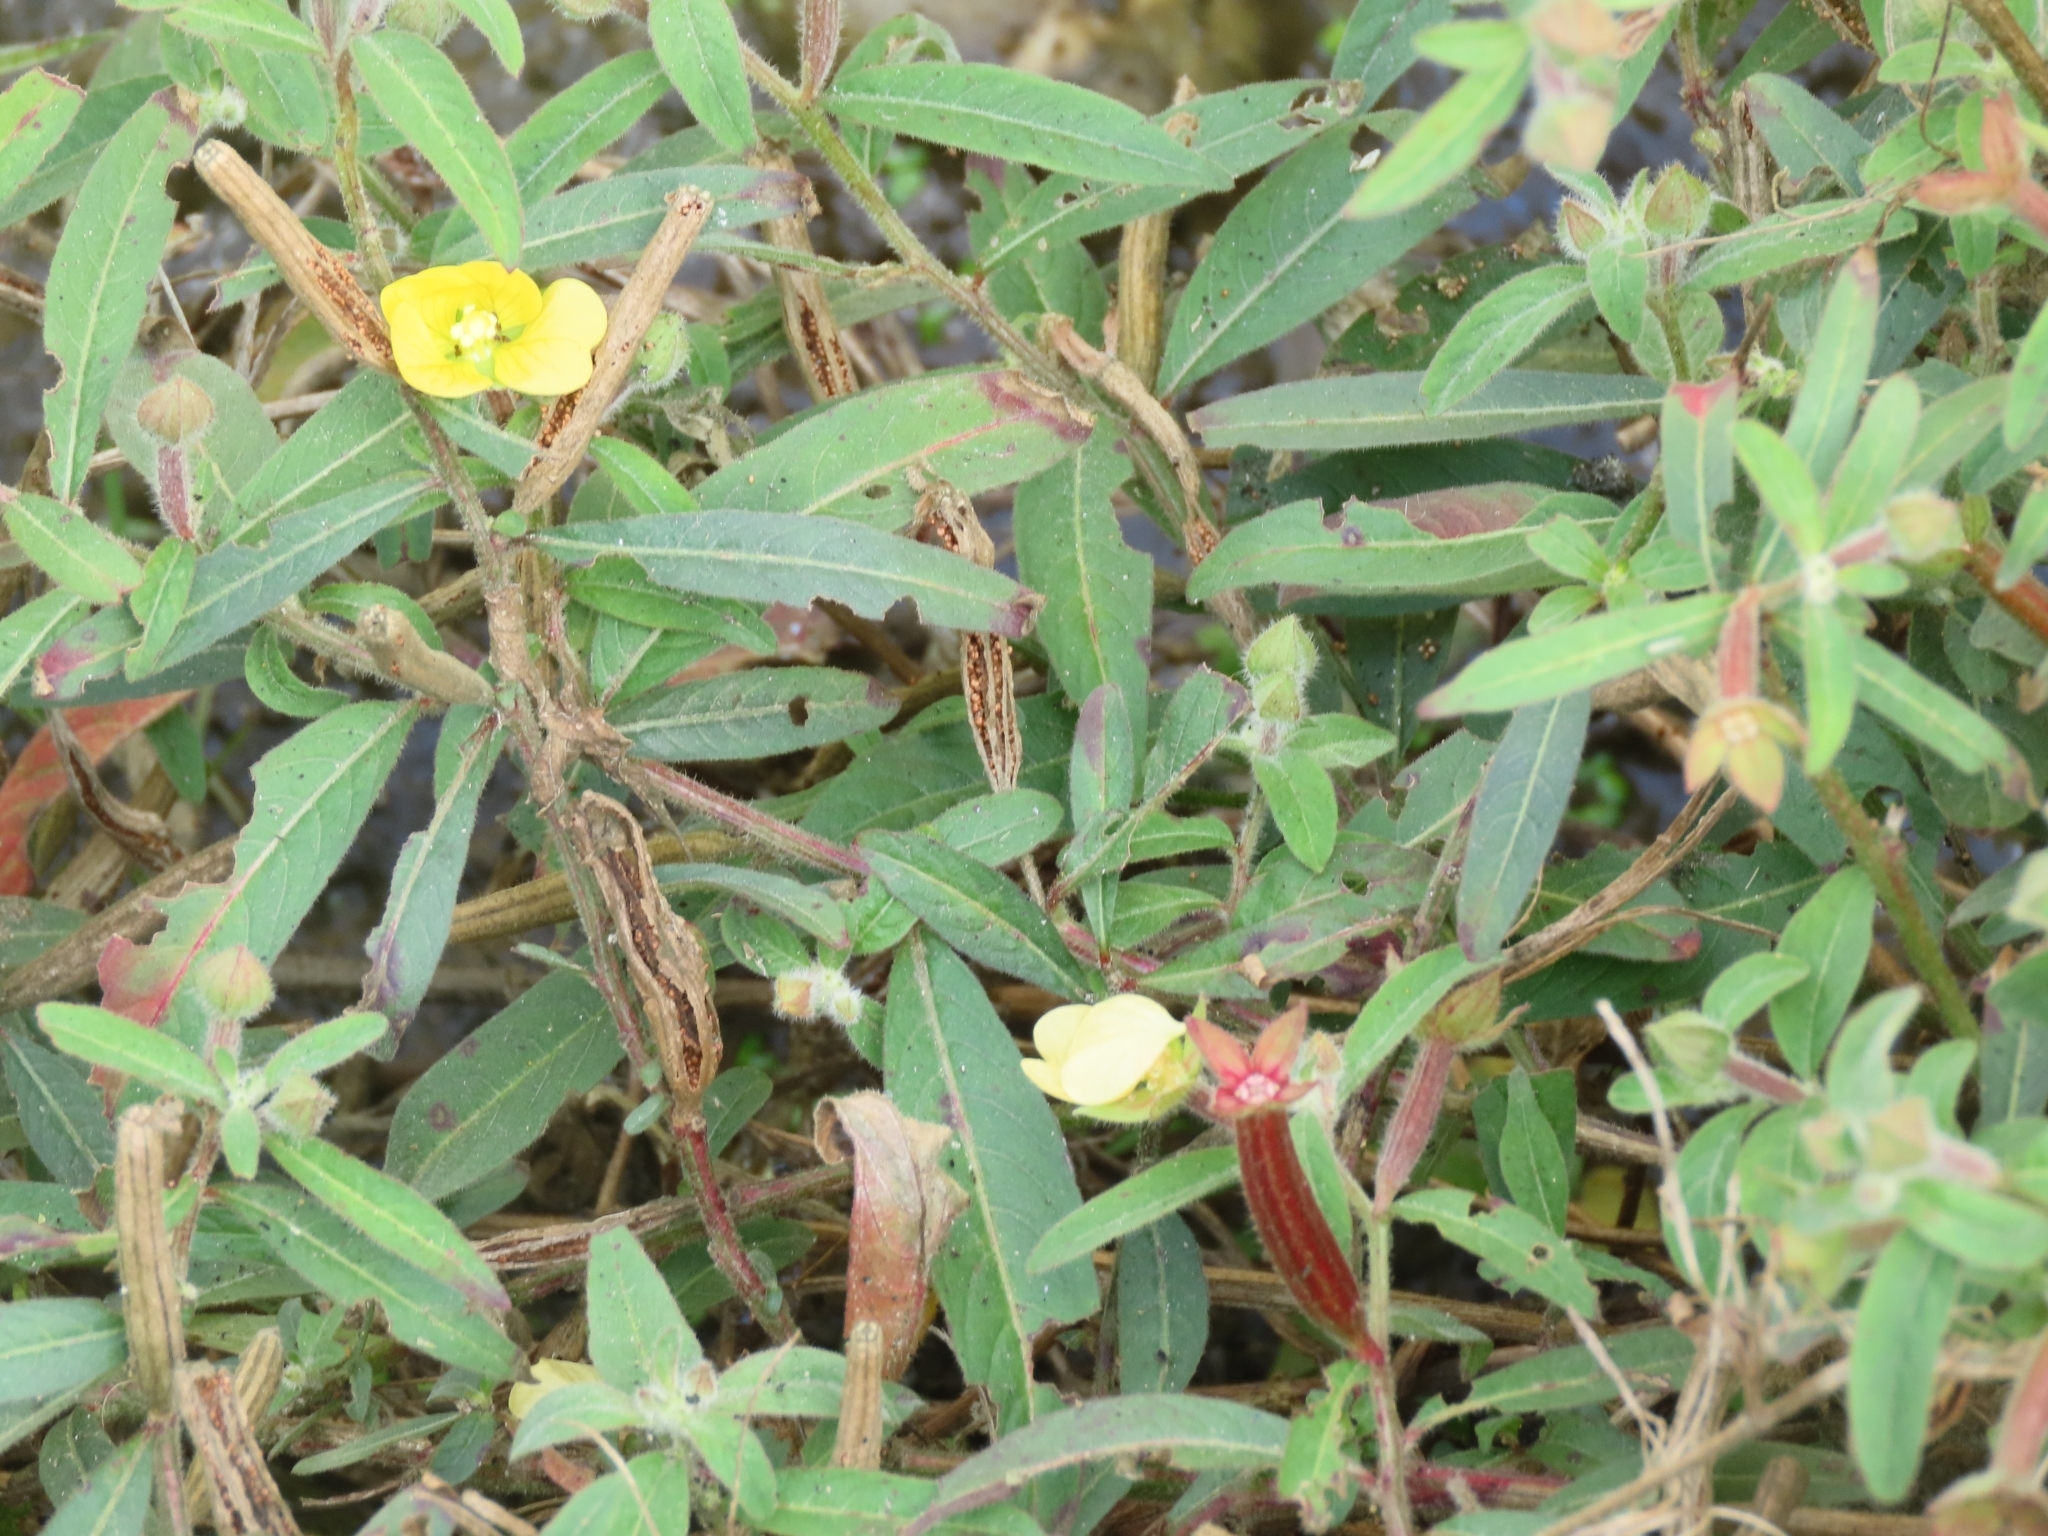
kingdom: Plantae
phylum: Tracheophyta
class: Magnoliopsida
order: Myrtales
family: Onagraceae
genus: Ludwigia
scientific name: Ludwigia octovalvis
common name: Water-primrose
